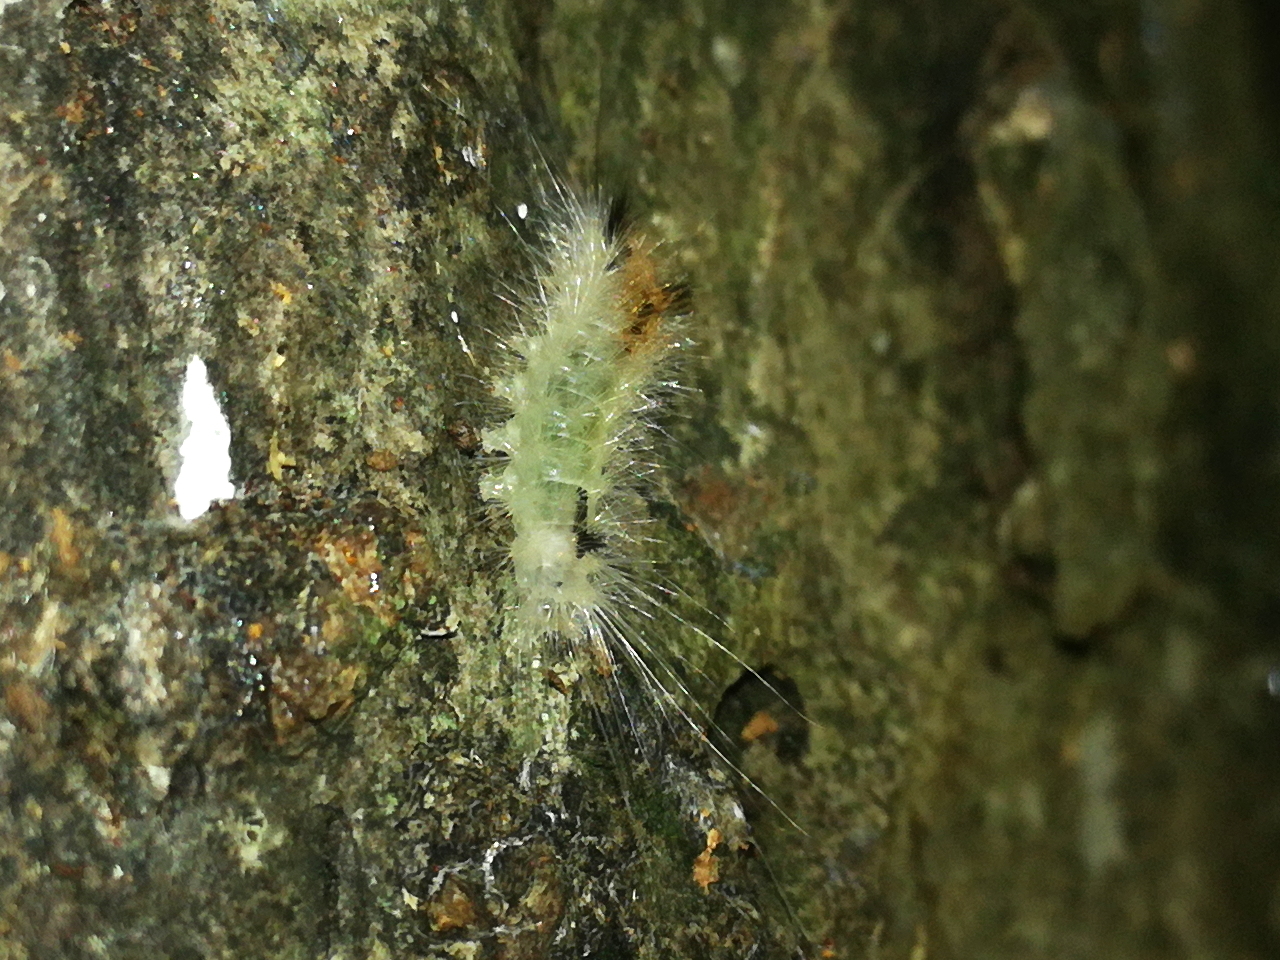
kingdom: Animalia
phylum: Arthropoda
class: Insecta
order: Lepidoptera
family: Noctuidae
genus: Colocasia
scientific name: Colocasia coryli
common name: Nut-tree tussock
